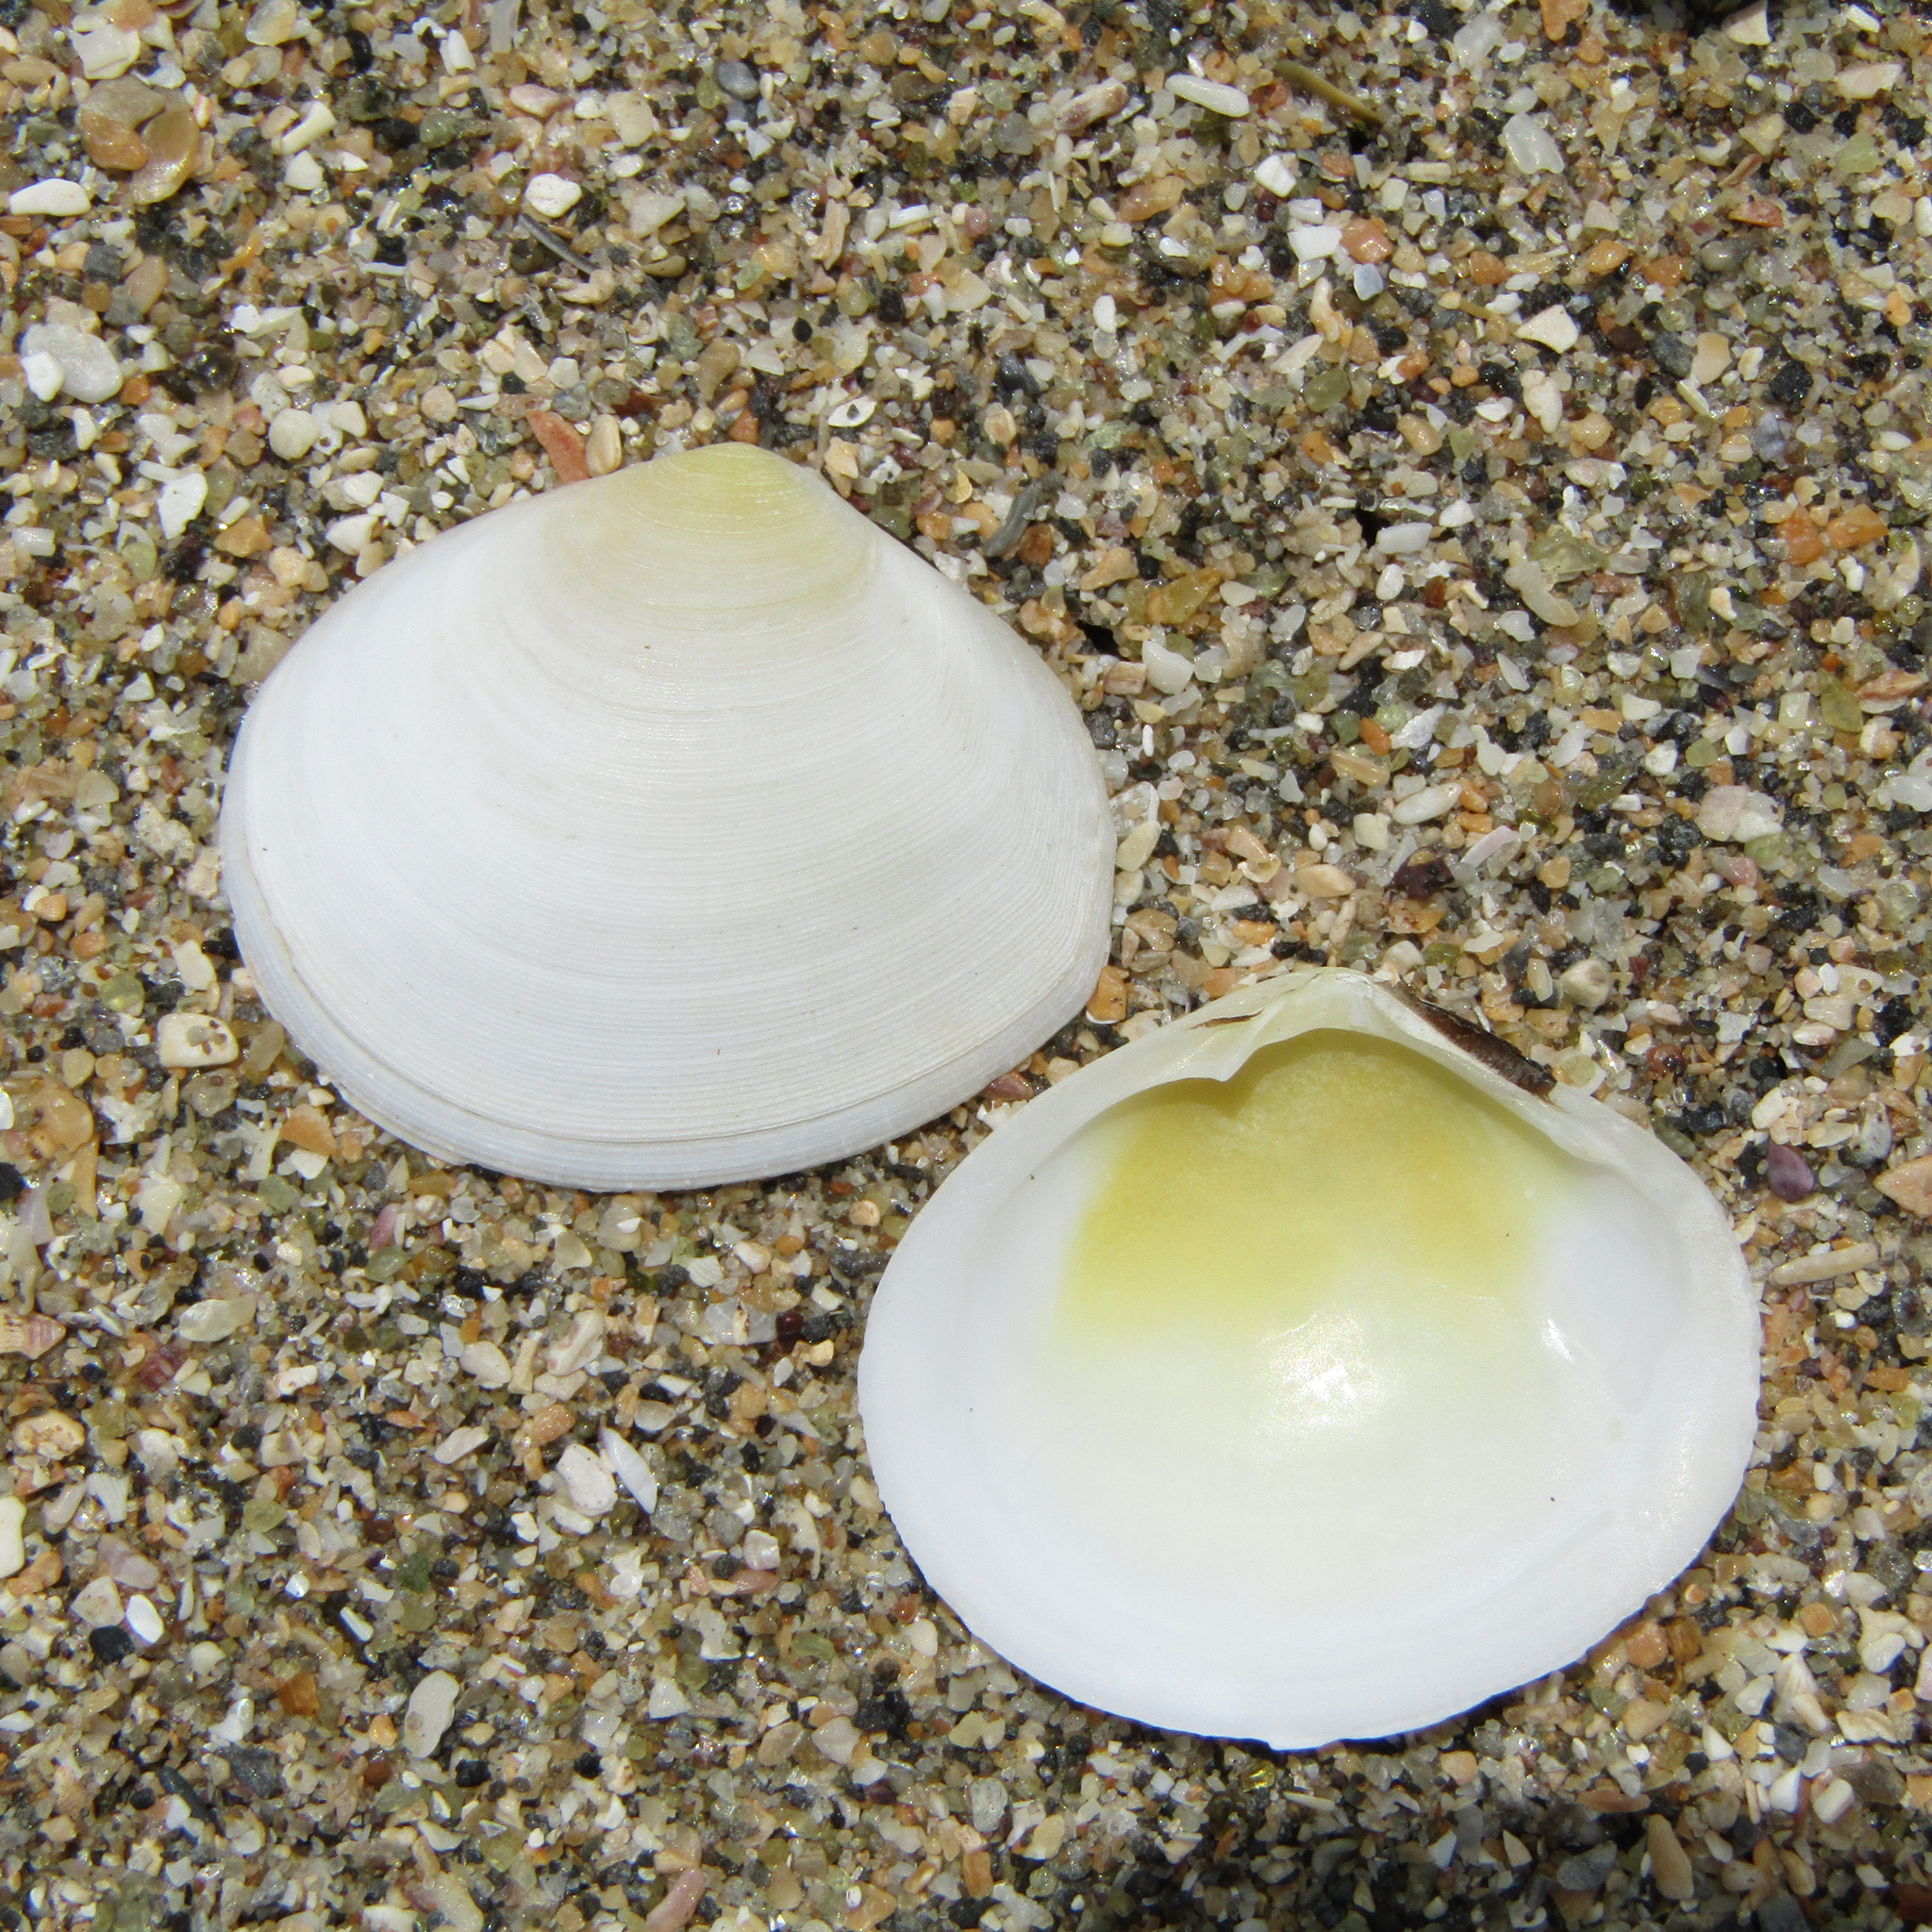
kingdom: Animalia
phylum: Mollusca
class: Bivalvia
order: Cardiida
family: Tellinidae
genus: Pseudarcopagia
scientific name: Pseudarcopagia disculus
